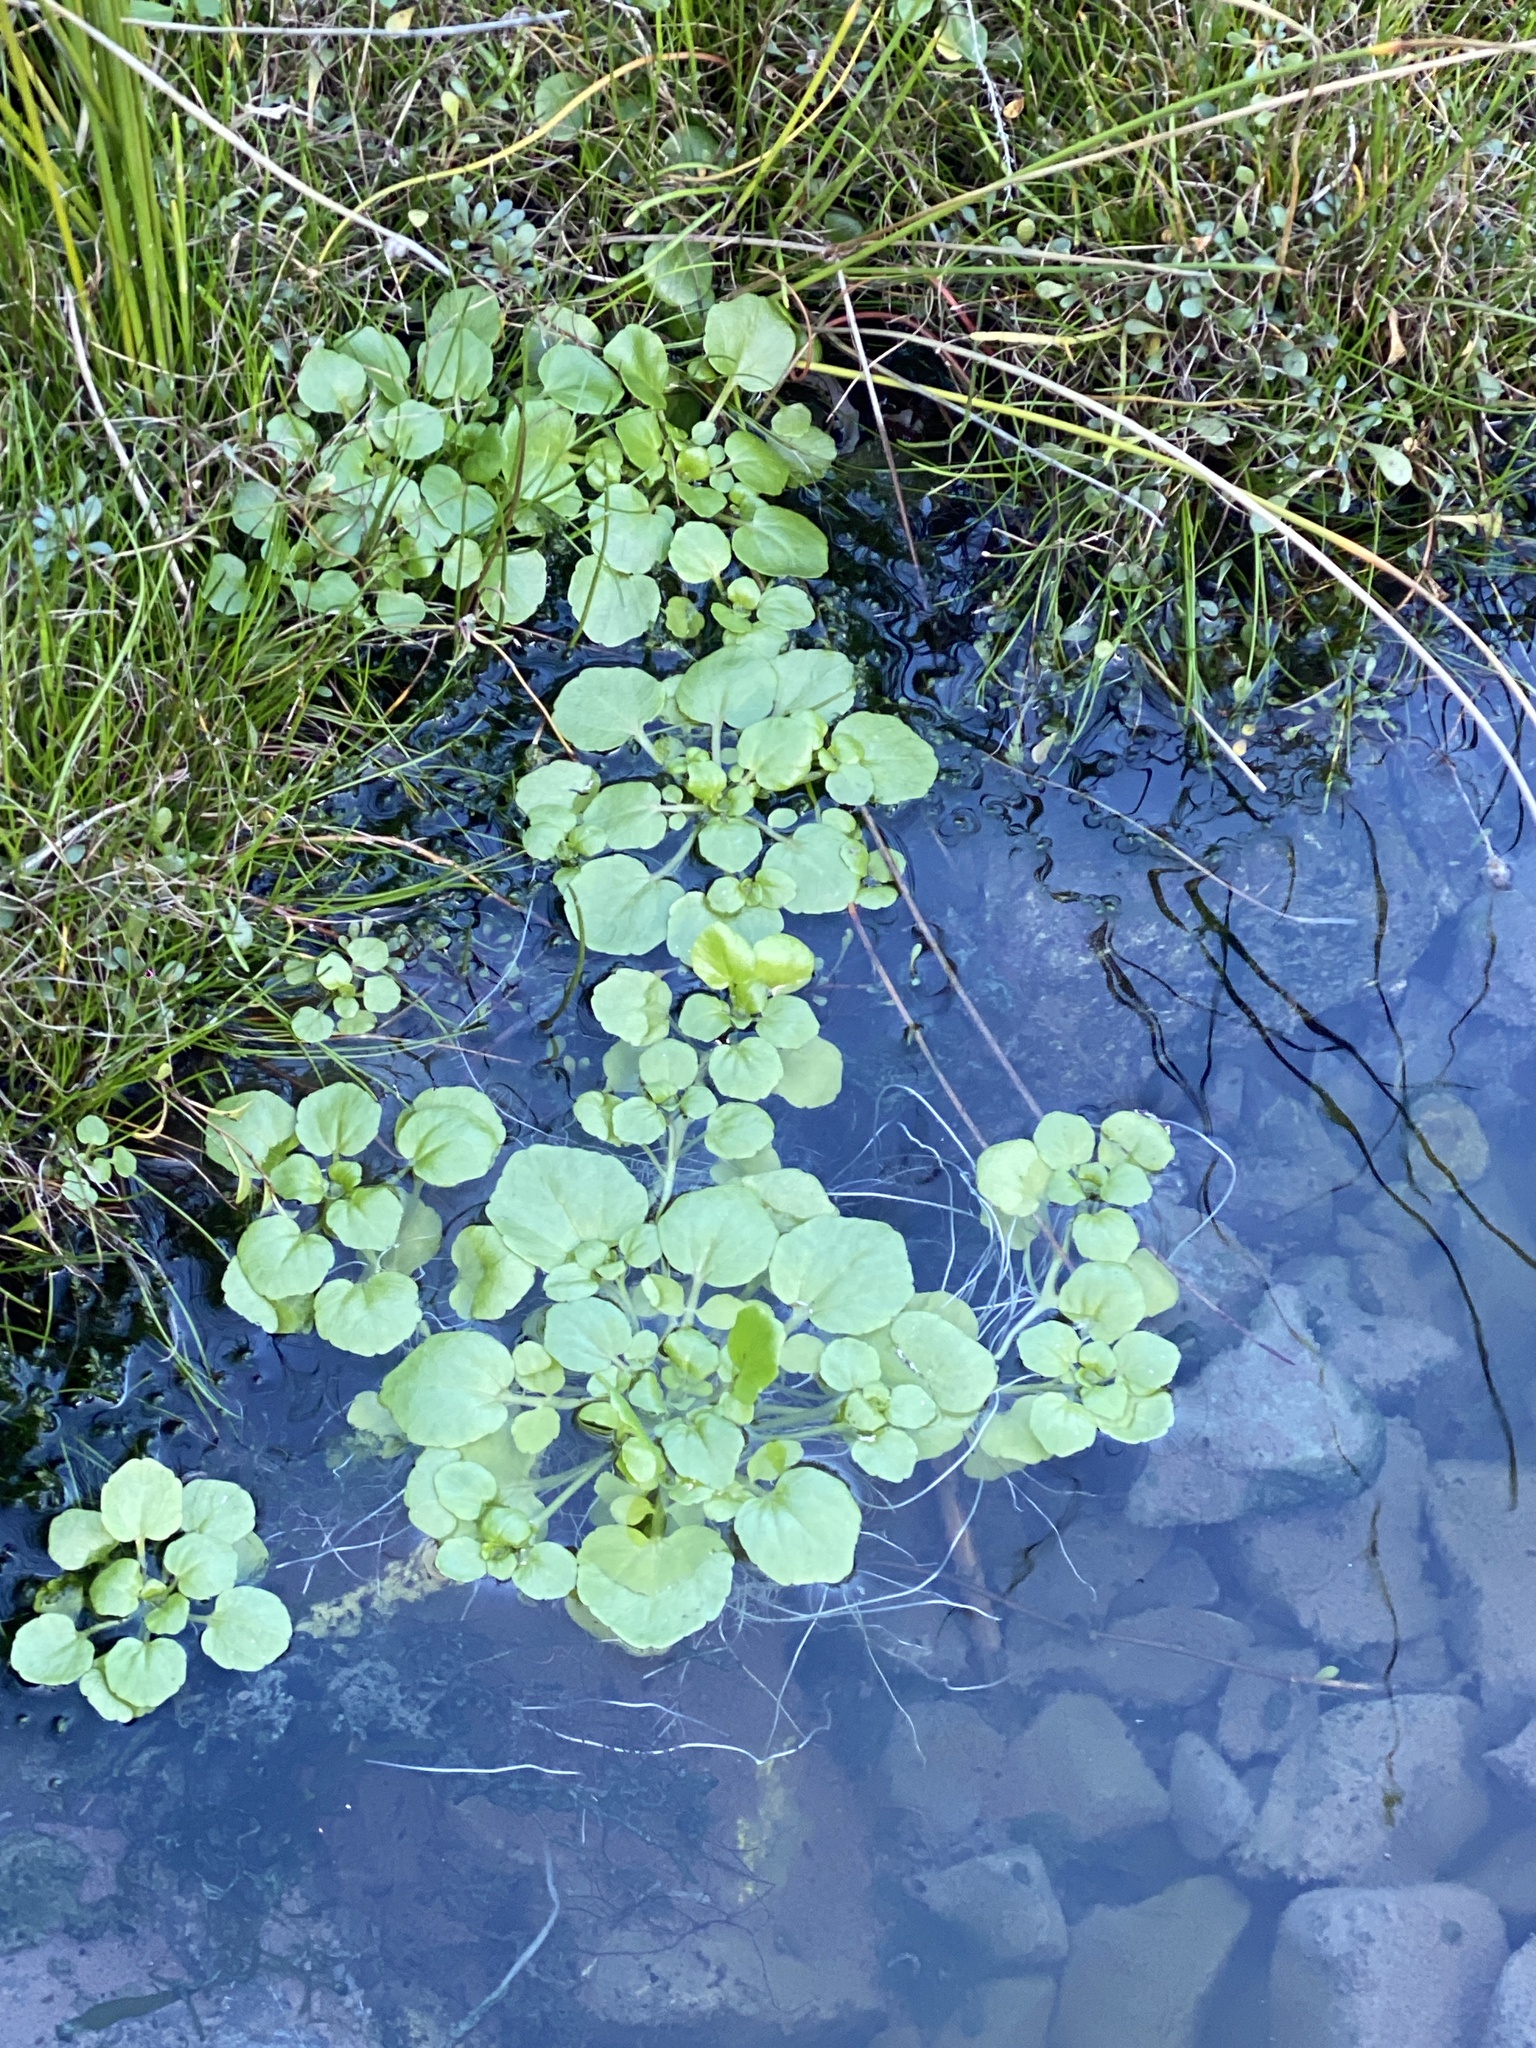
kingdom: Plantae
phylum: Tracheophyta
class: Magnoliopsida
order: Brassicales
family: Brassicaceae
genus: Nasturtium
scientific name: Nasturtium officinale
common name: Watercress
